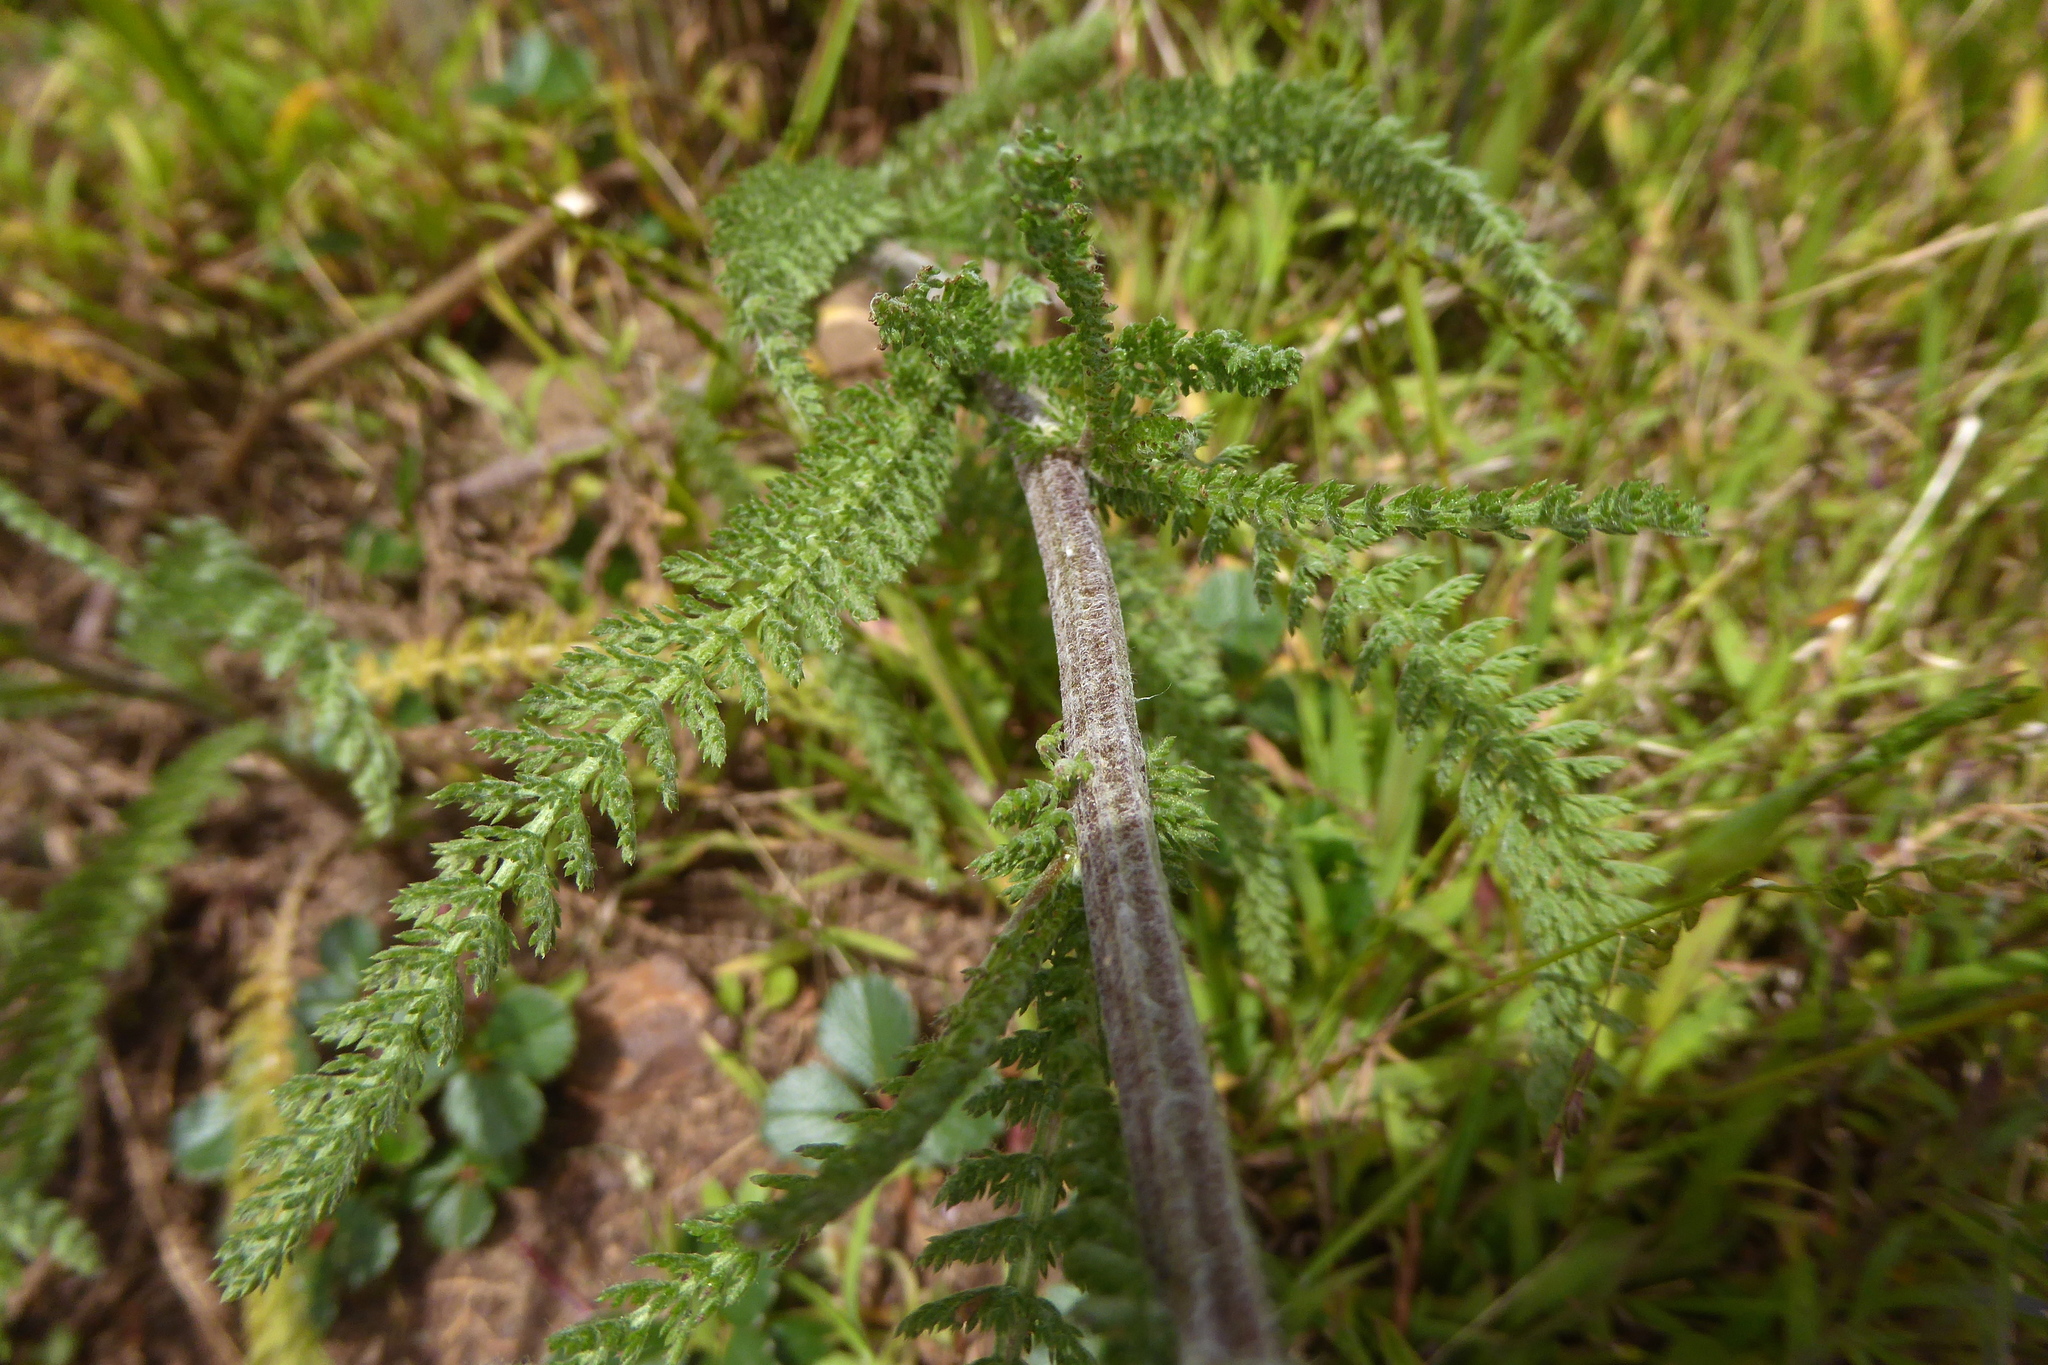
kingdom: Plantae
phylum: Tracheophyta
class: Magnoliopsida
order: Asterales
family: Asteraceae
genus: Achillea
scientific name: Achillea millefolium
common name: Yarrow
